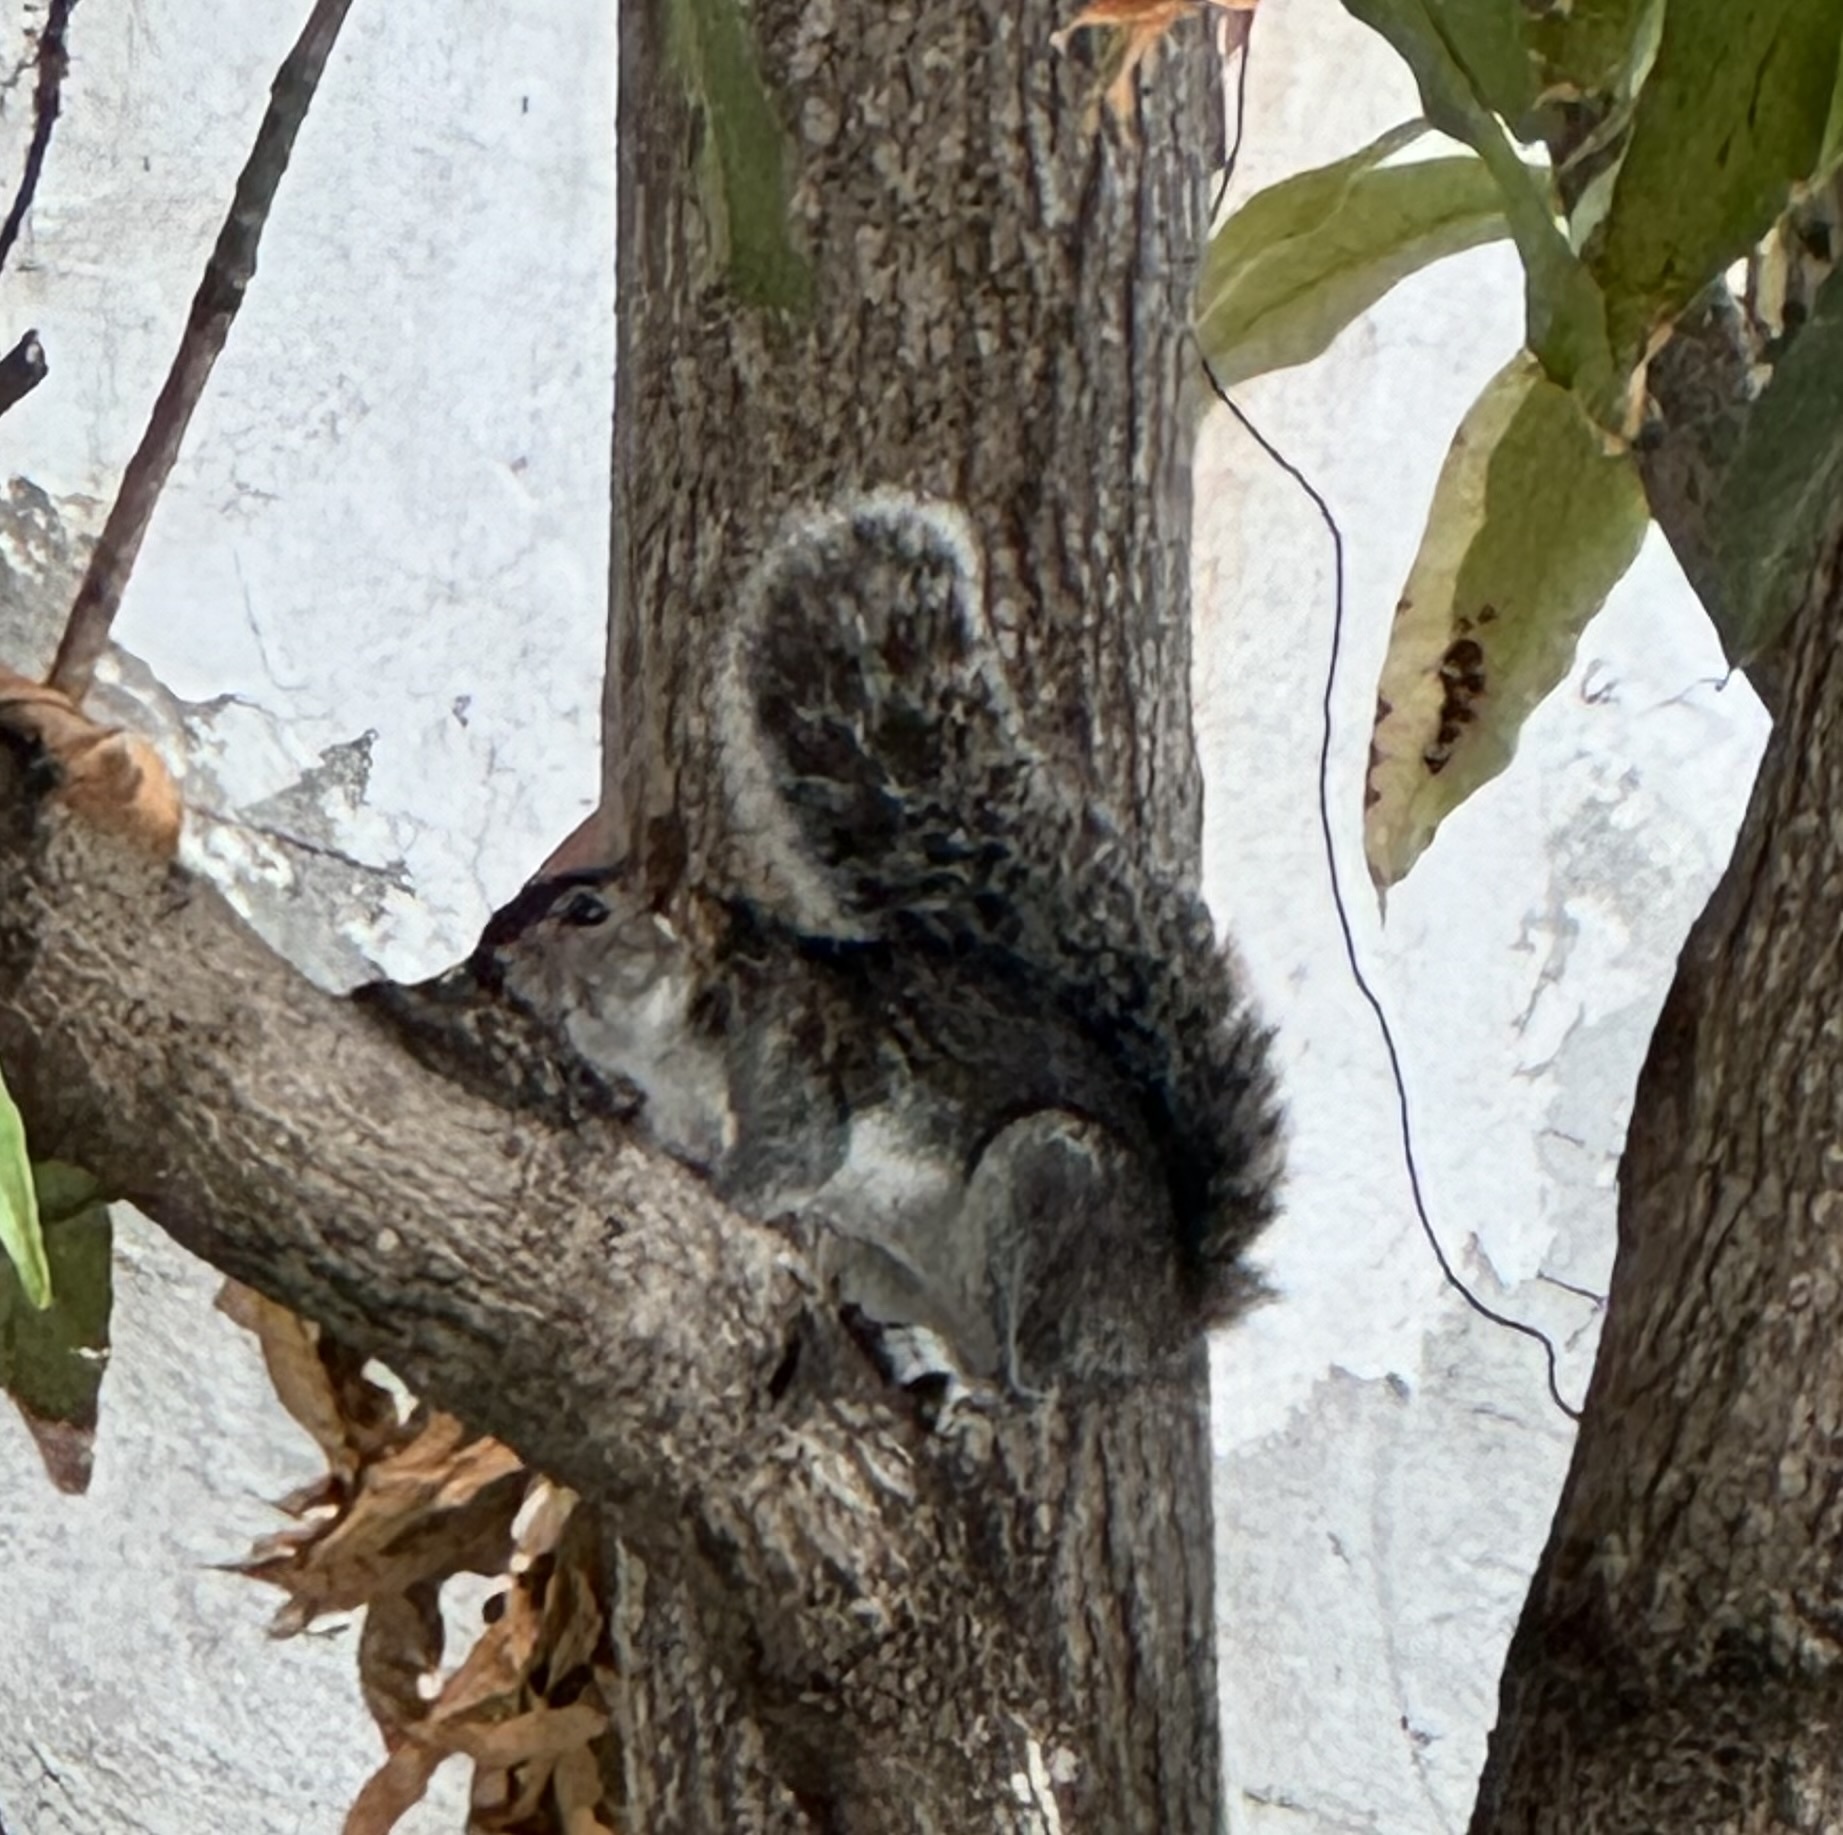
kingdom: Animalia
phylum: Chordata
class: Mammalia
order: Rodentia
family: Sciuridae
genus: Sciurus
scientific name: Sciurus colliaei
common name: Collie's squirrel
